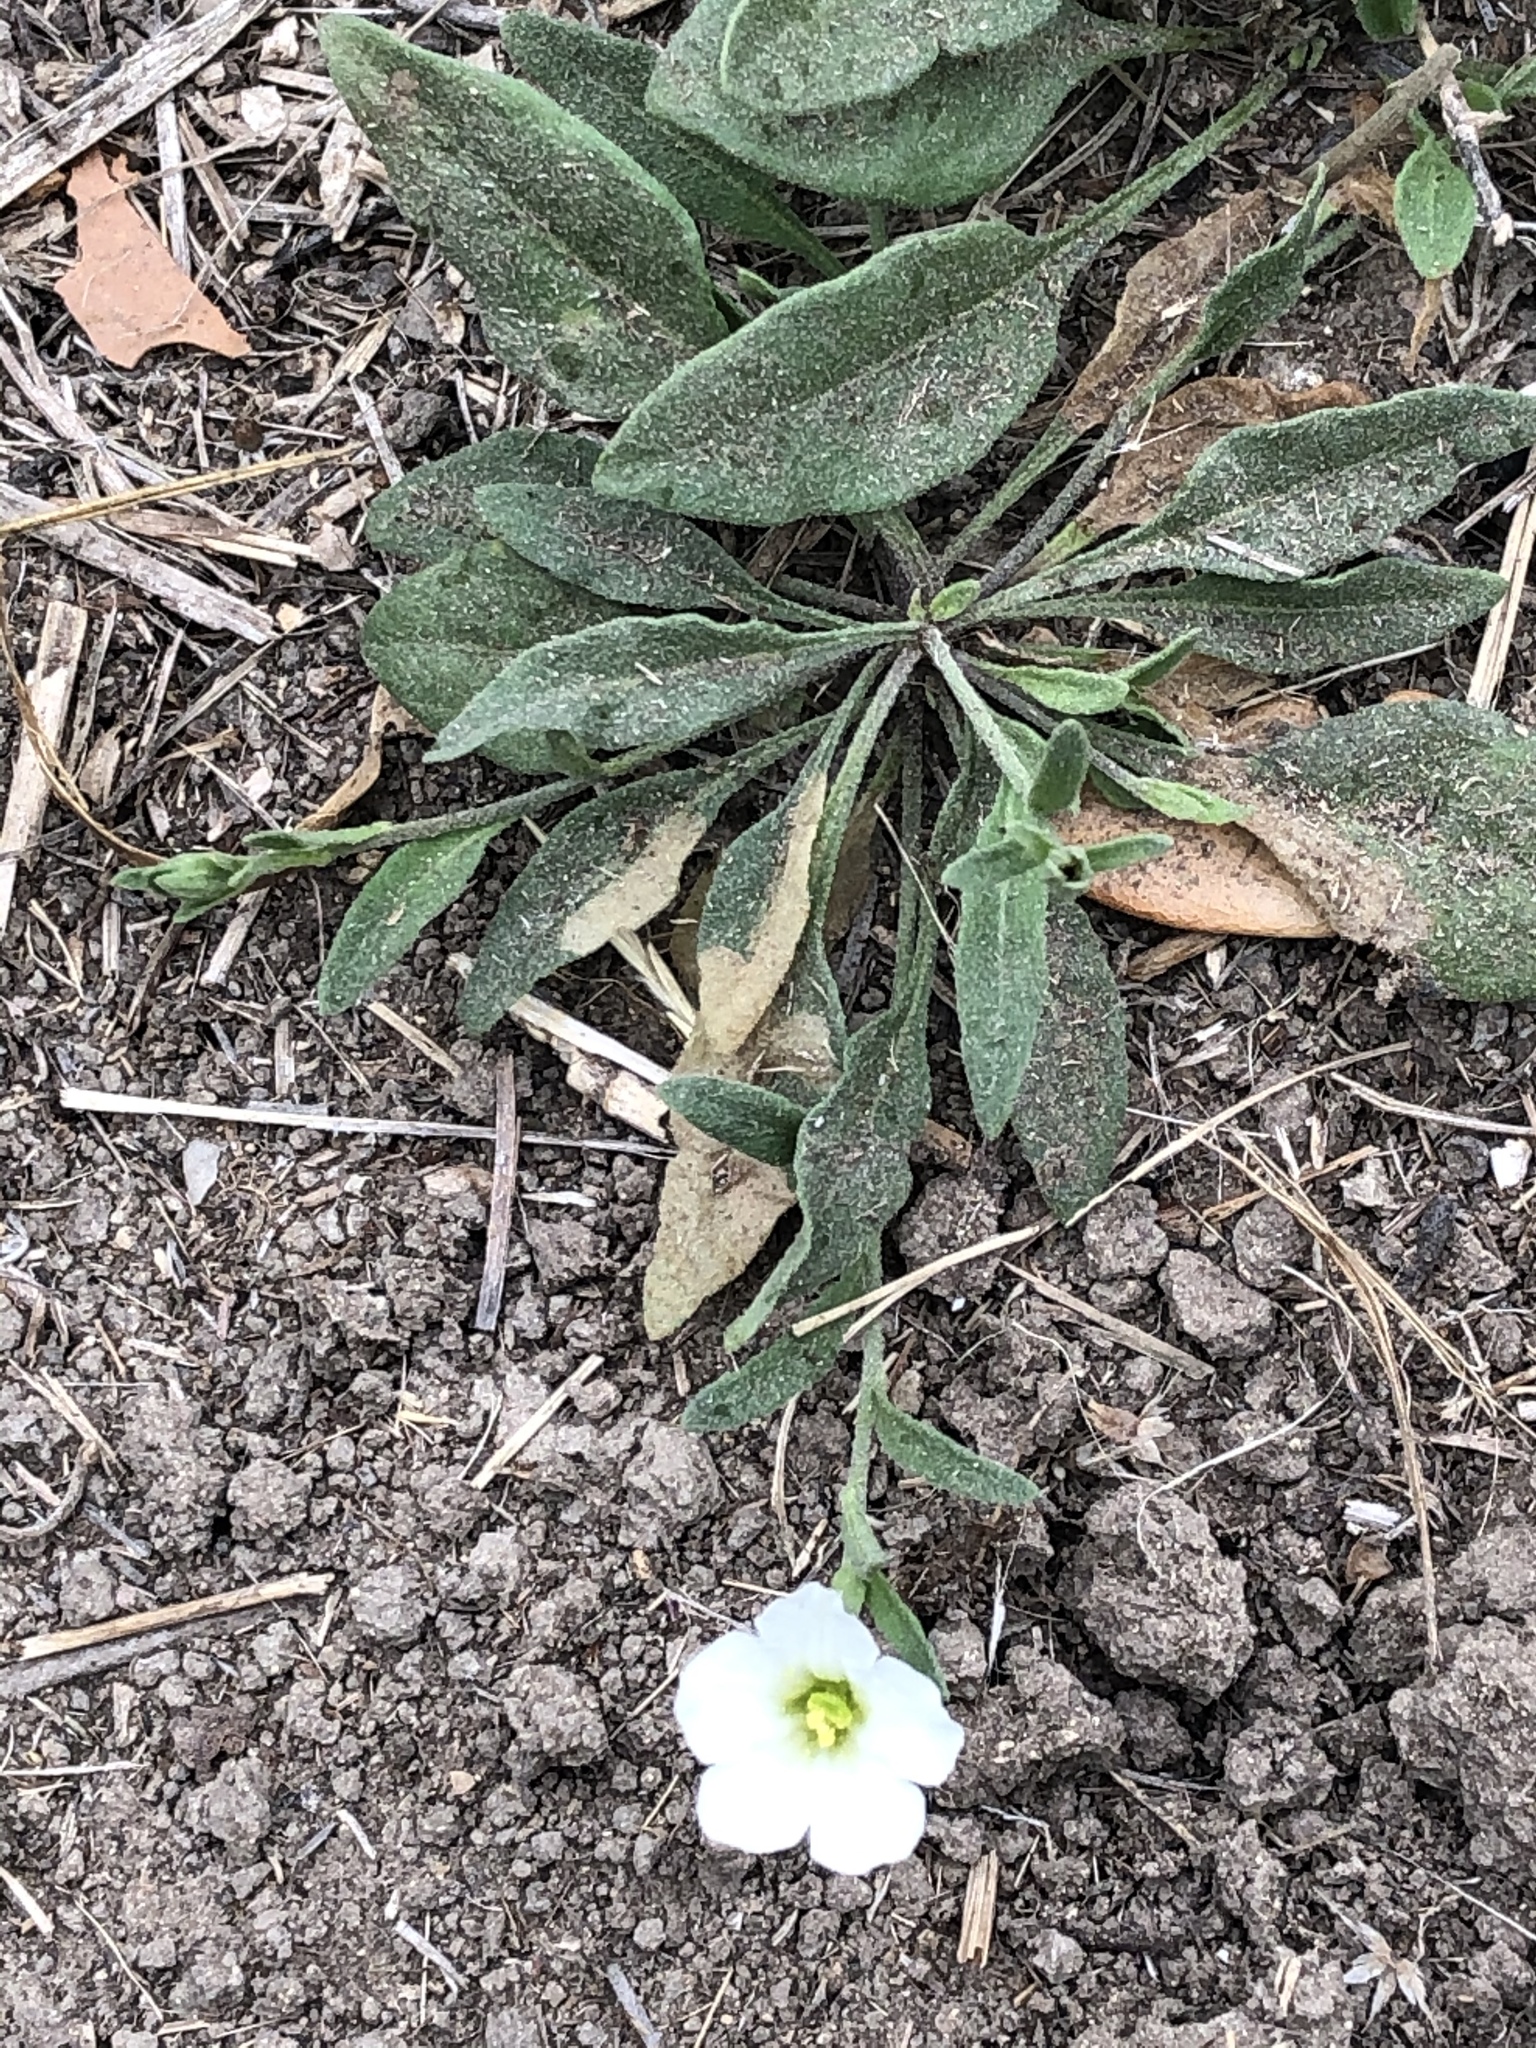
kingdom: Plantae
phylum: Tracheophyta
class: Magnoliopsida
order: Solanales
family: Solanaceae
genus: Salpiglossis
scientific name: Salpiglossis erecta
